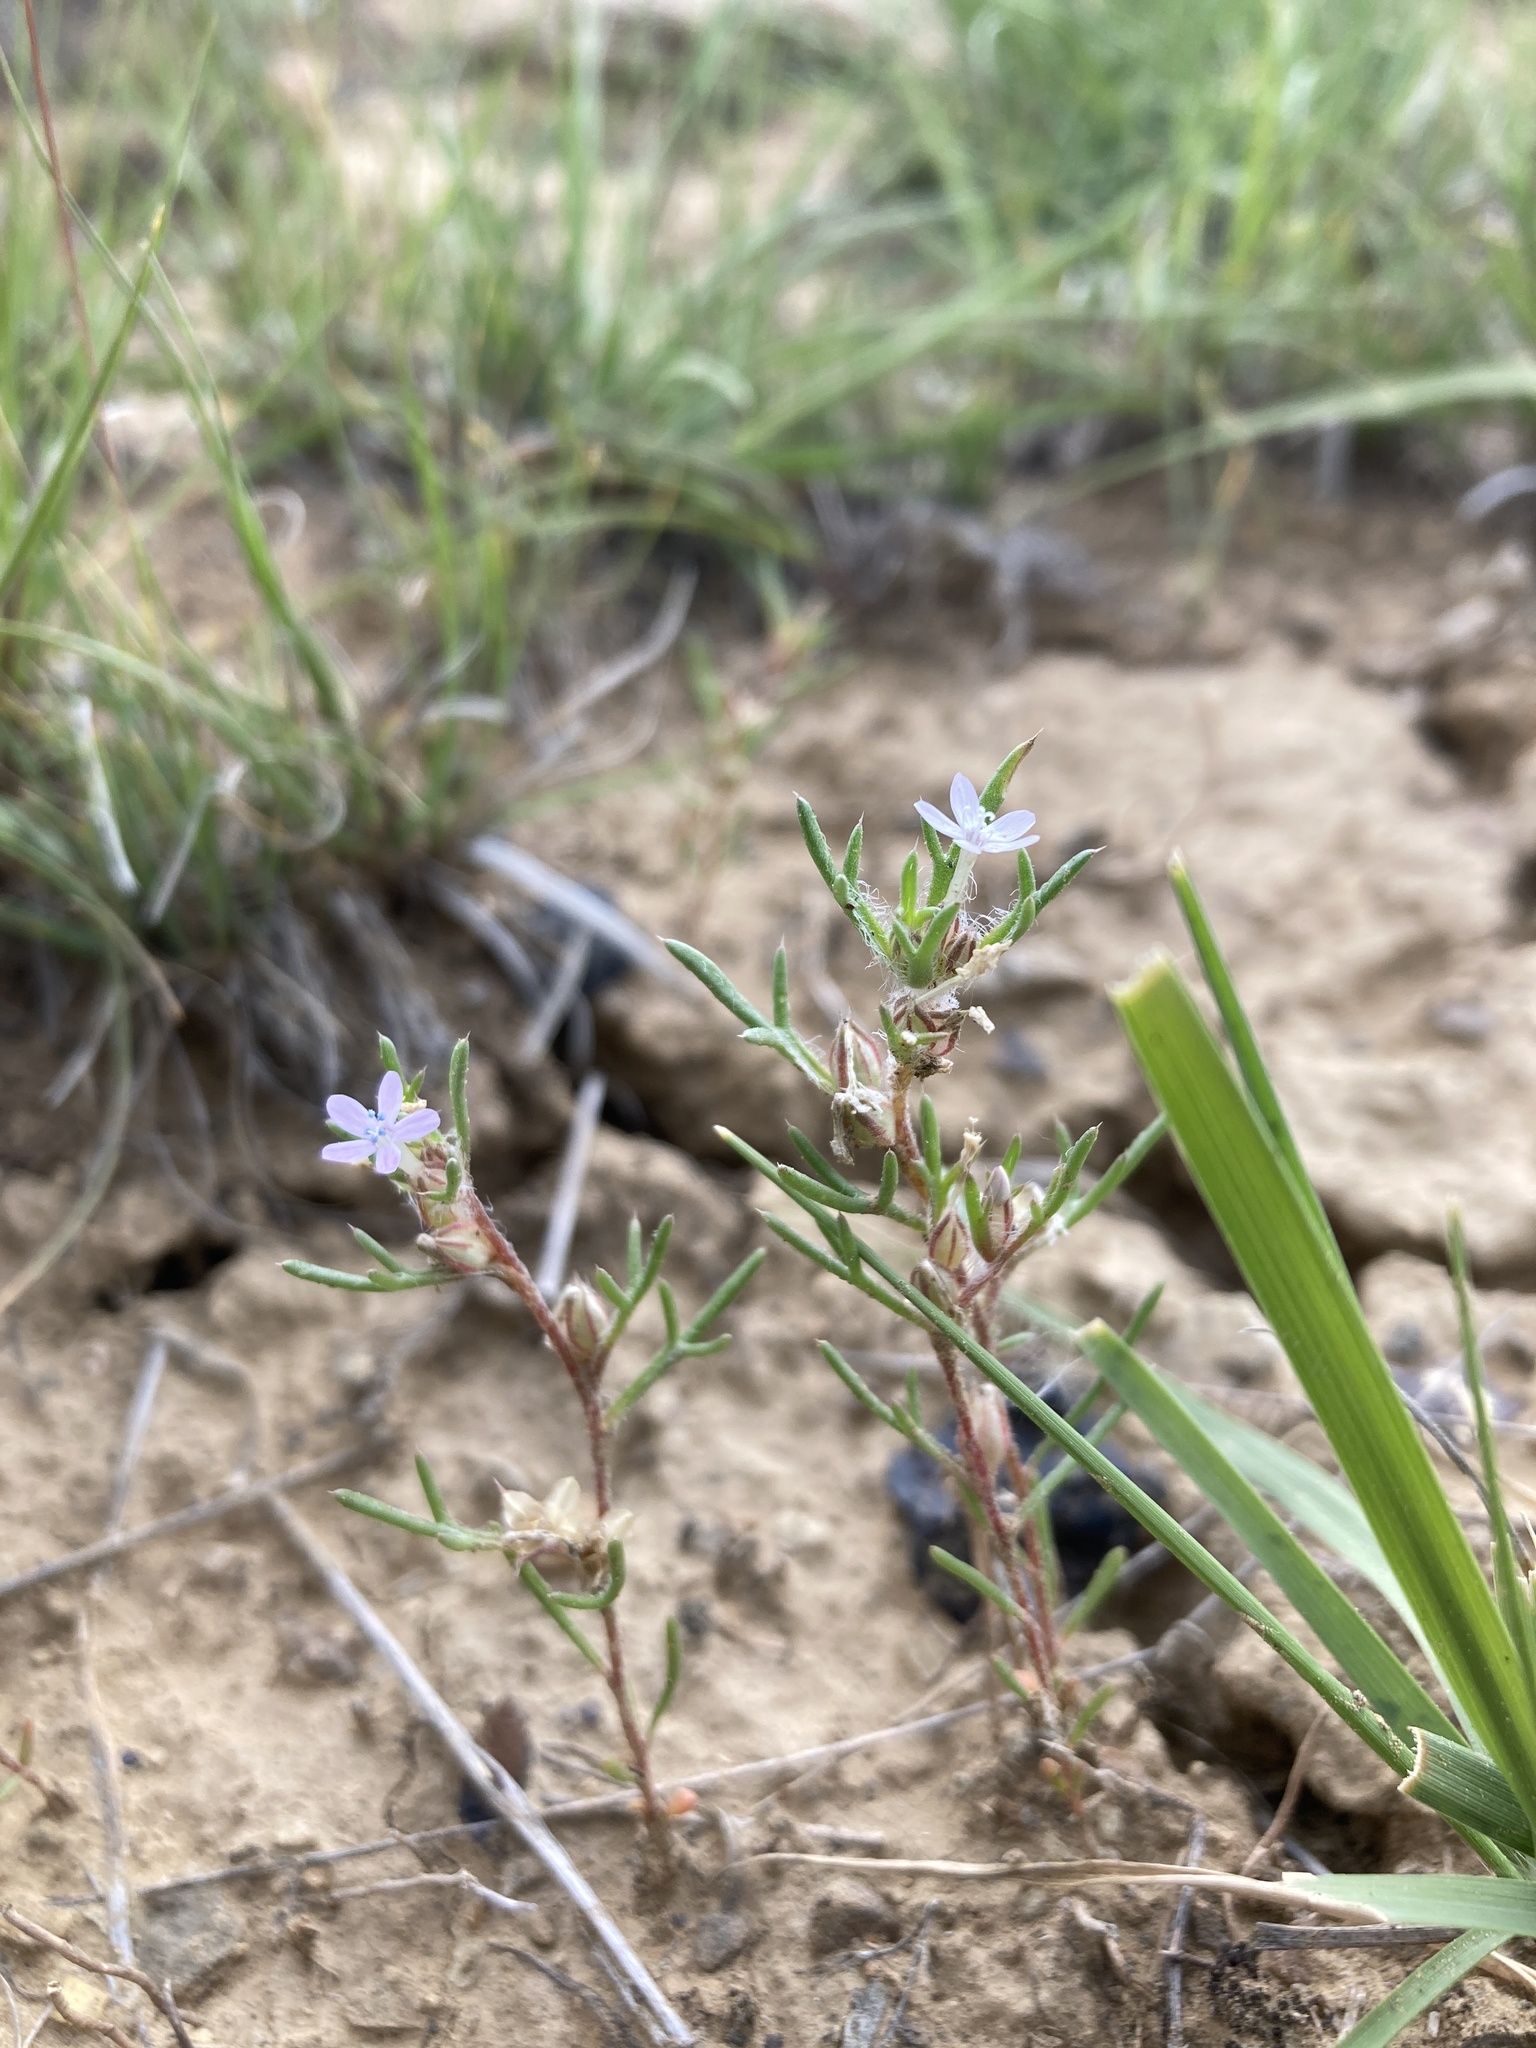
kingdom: Plantae
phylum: Tracheophyta
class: Magnoliopsida
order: Ericales
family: Polemoniaceae
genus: Ipomopsis
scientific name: Ipomopsis pumila
